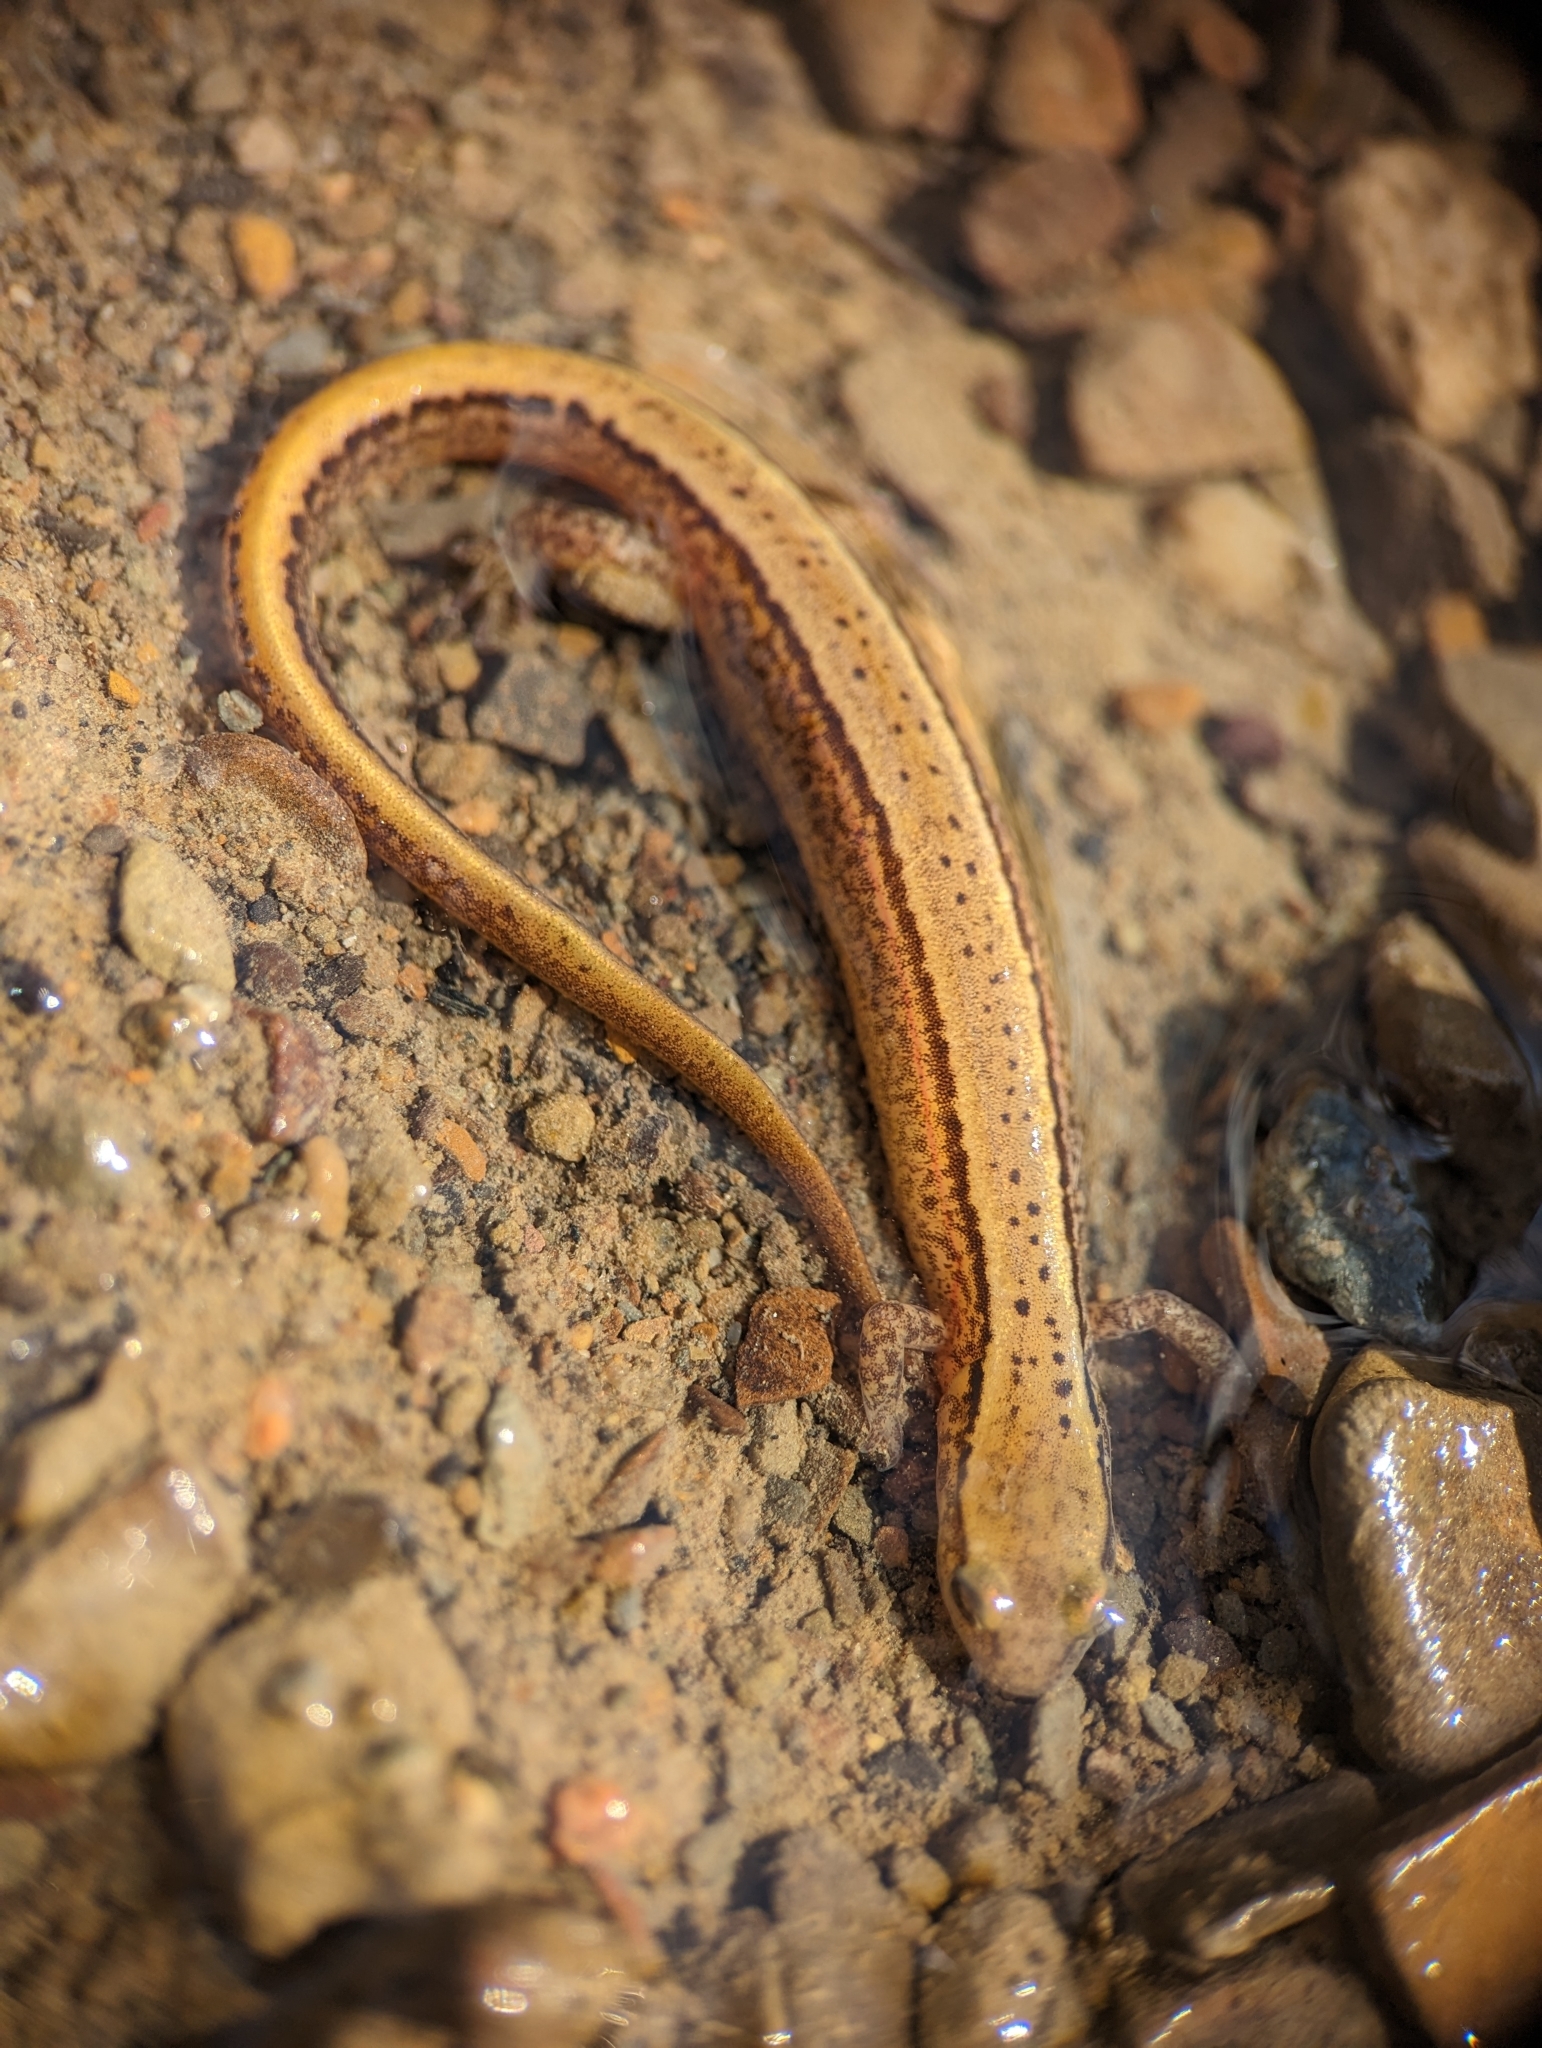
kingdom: Animalia
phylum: Chordata
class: Amphibia
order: Caudata
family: Plethodontidae
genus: Eurycea
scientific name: Eurycea bislineata
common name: Northern two-lined salamander
